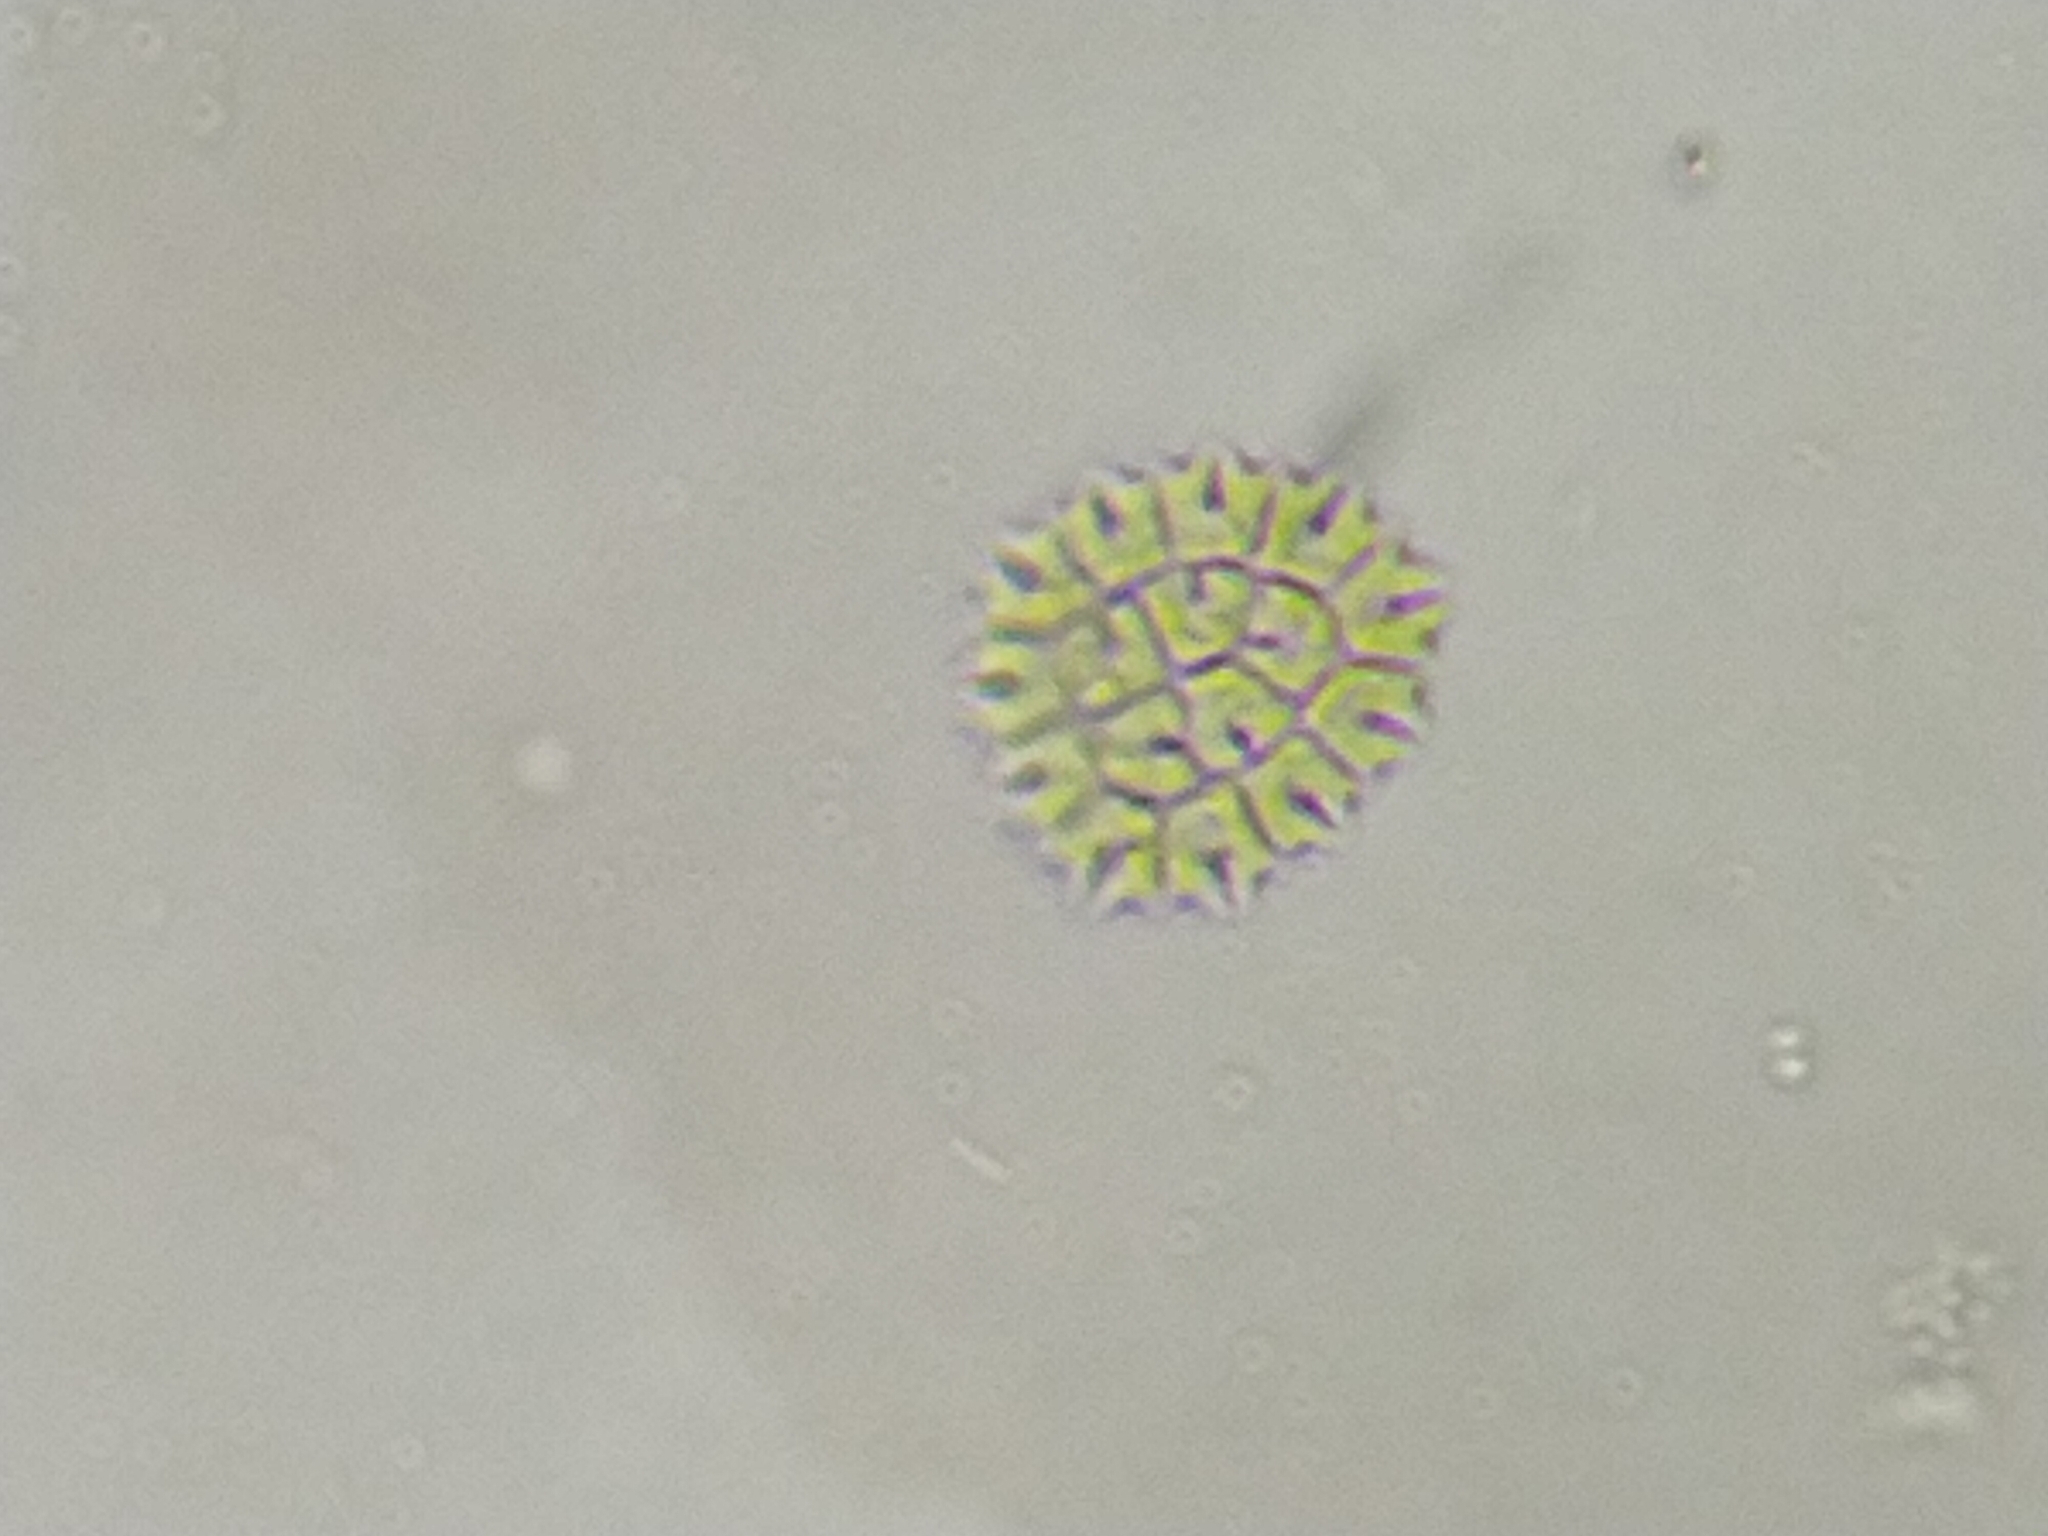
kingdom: Plantae
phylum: Chlorophyta
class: Chlorophyceae
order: Sphaeropleales
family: Hydrodictyaceae
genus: Stauridium
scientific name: Stauridium tetras
